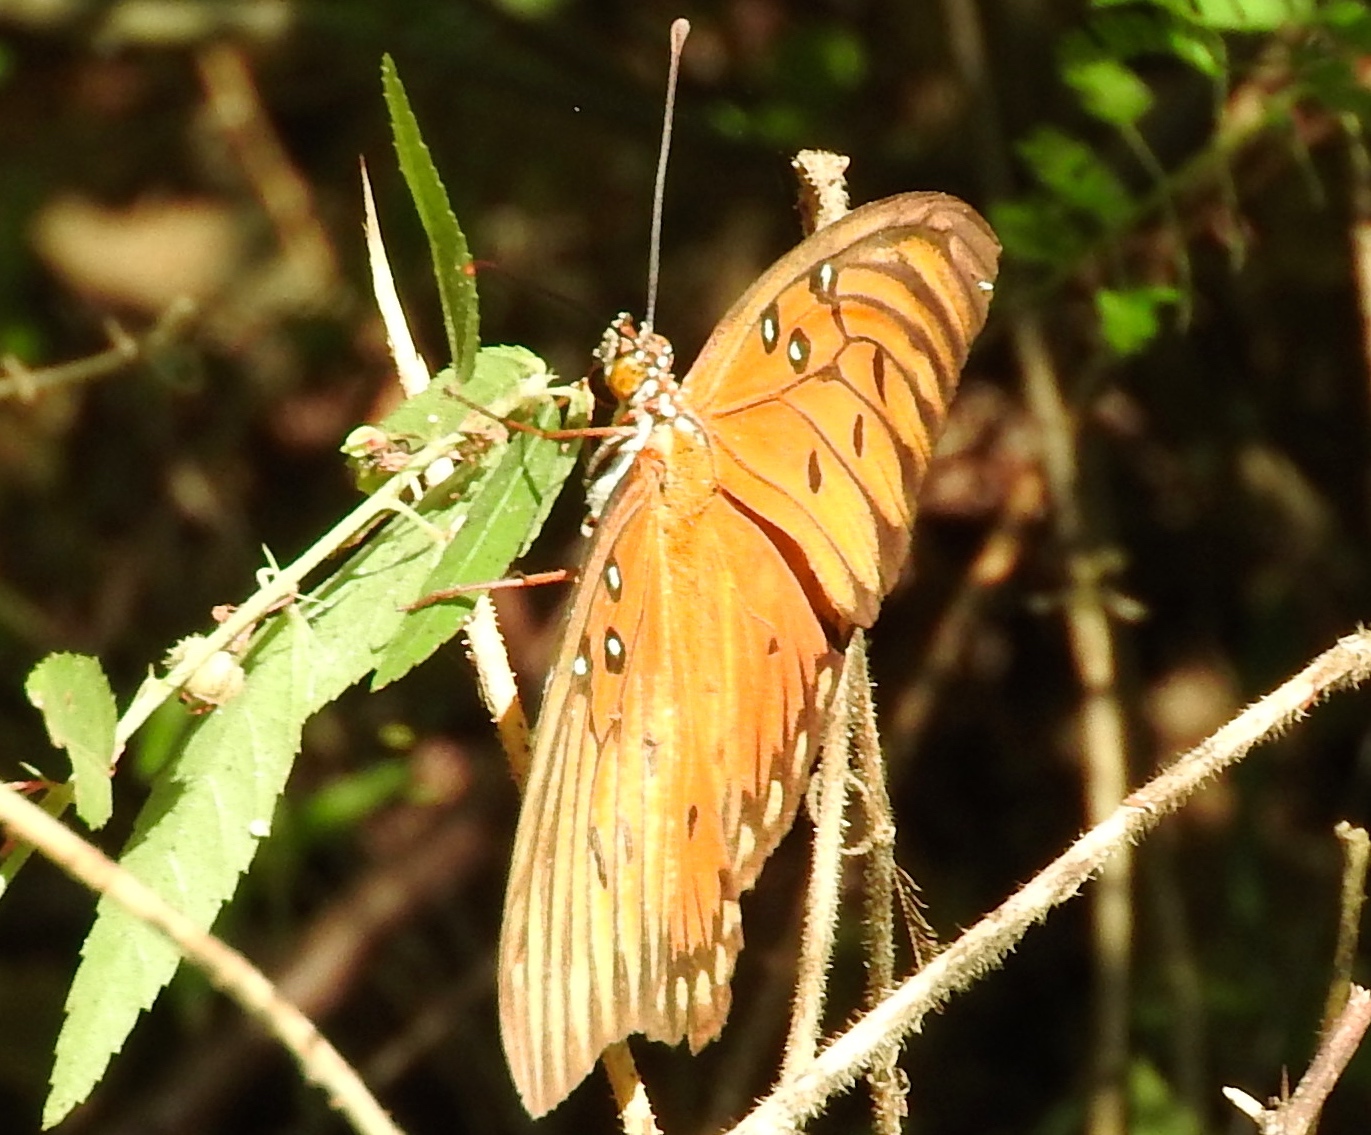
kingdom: Animalia
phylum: Arthropoda
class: Insecta
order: Lepidoptera
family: Nymphalidae
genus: Dione
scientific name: Dione vanillae
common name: Gulf fritillary
